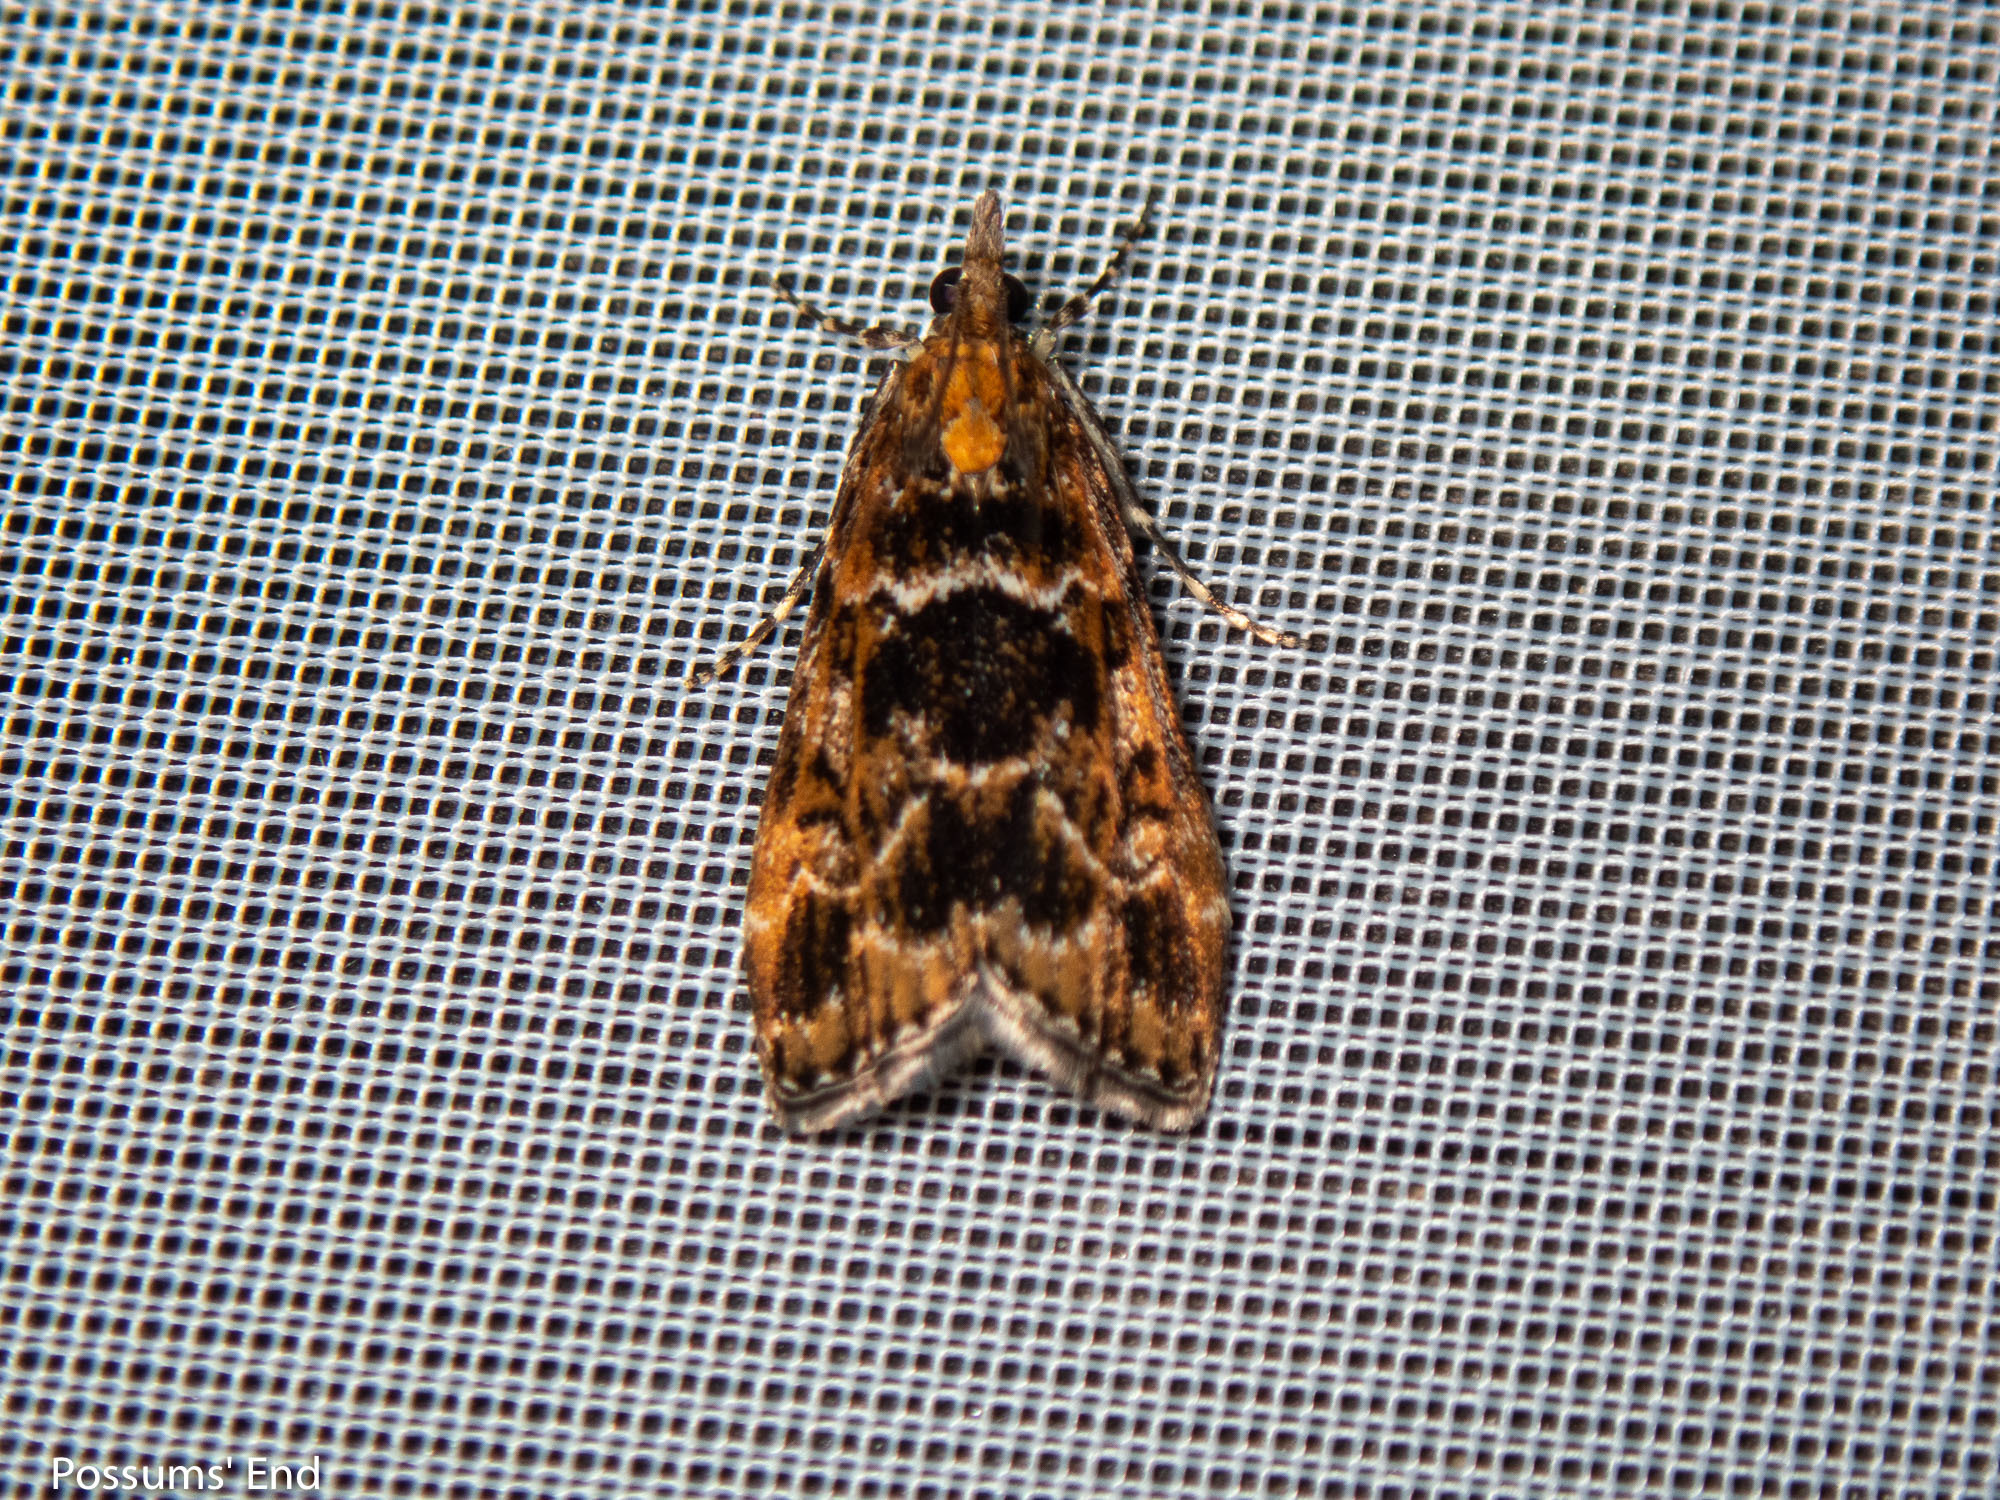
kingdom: Animalia
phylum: Arthropoda
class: Insecta
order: Lepidoptera
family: Crambidae
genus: Scoparia
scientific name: Scoparia animosa
